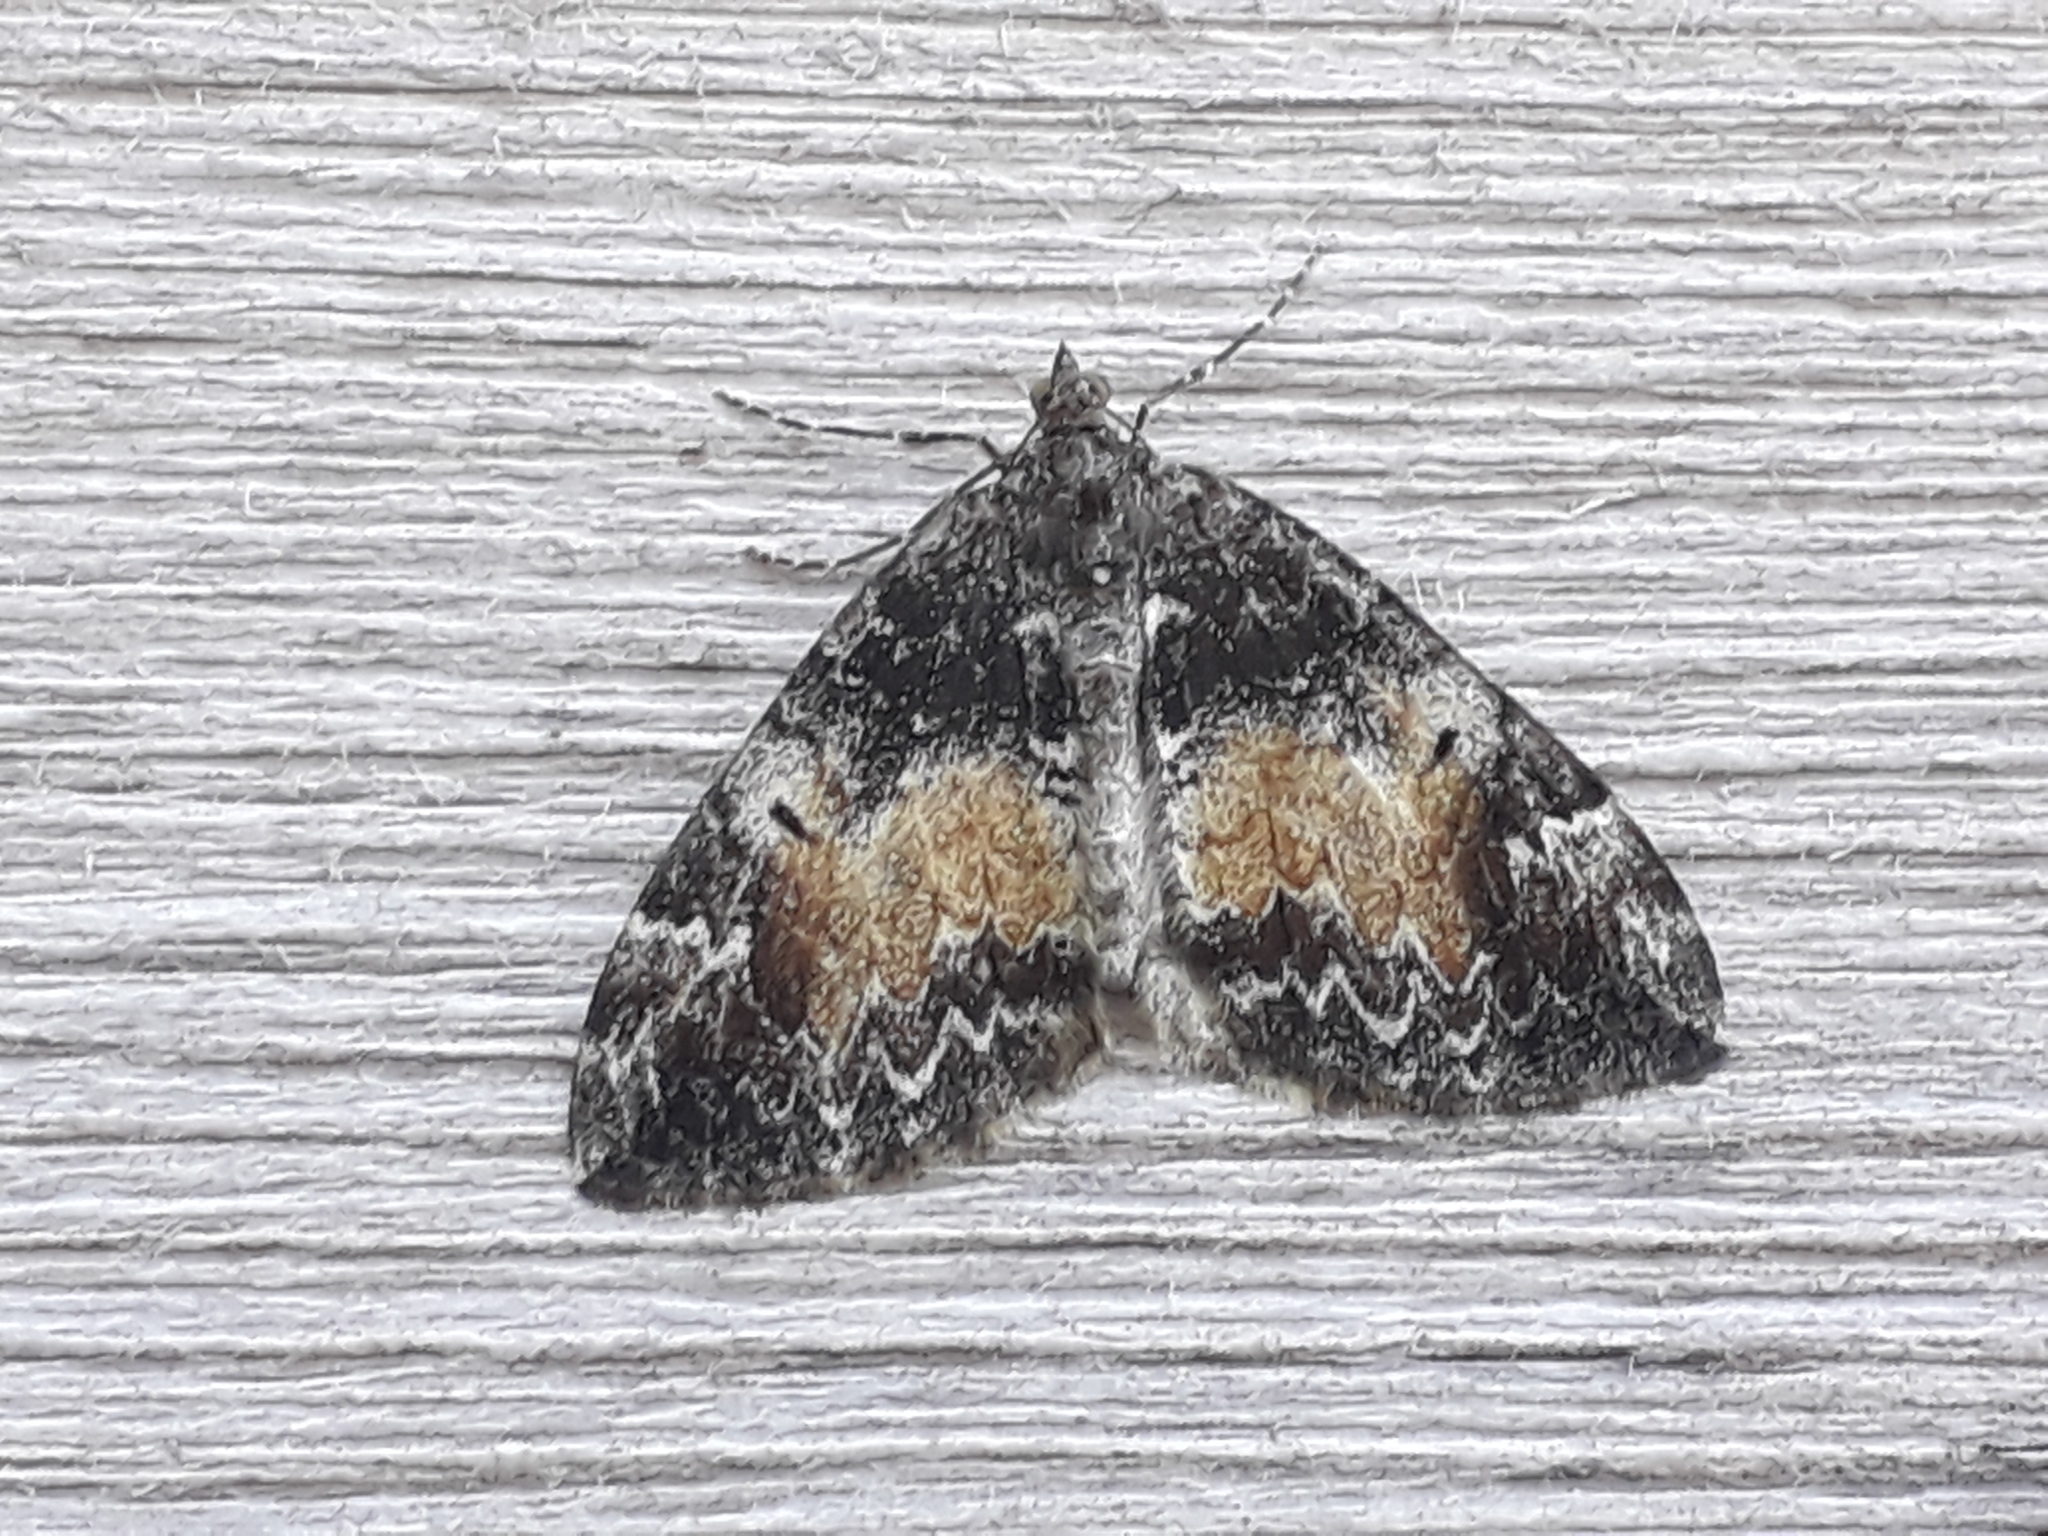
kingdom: Animalia
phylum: Arthropoda
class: Insecta
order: Lepidoptera
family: Geometridae
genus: Dysstroma
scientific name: Dysstroma truncata
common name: Common marbled carpet
